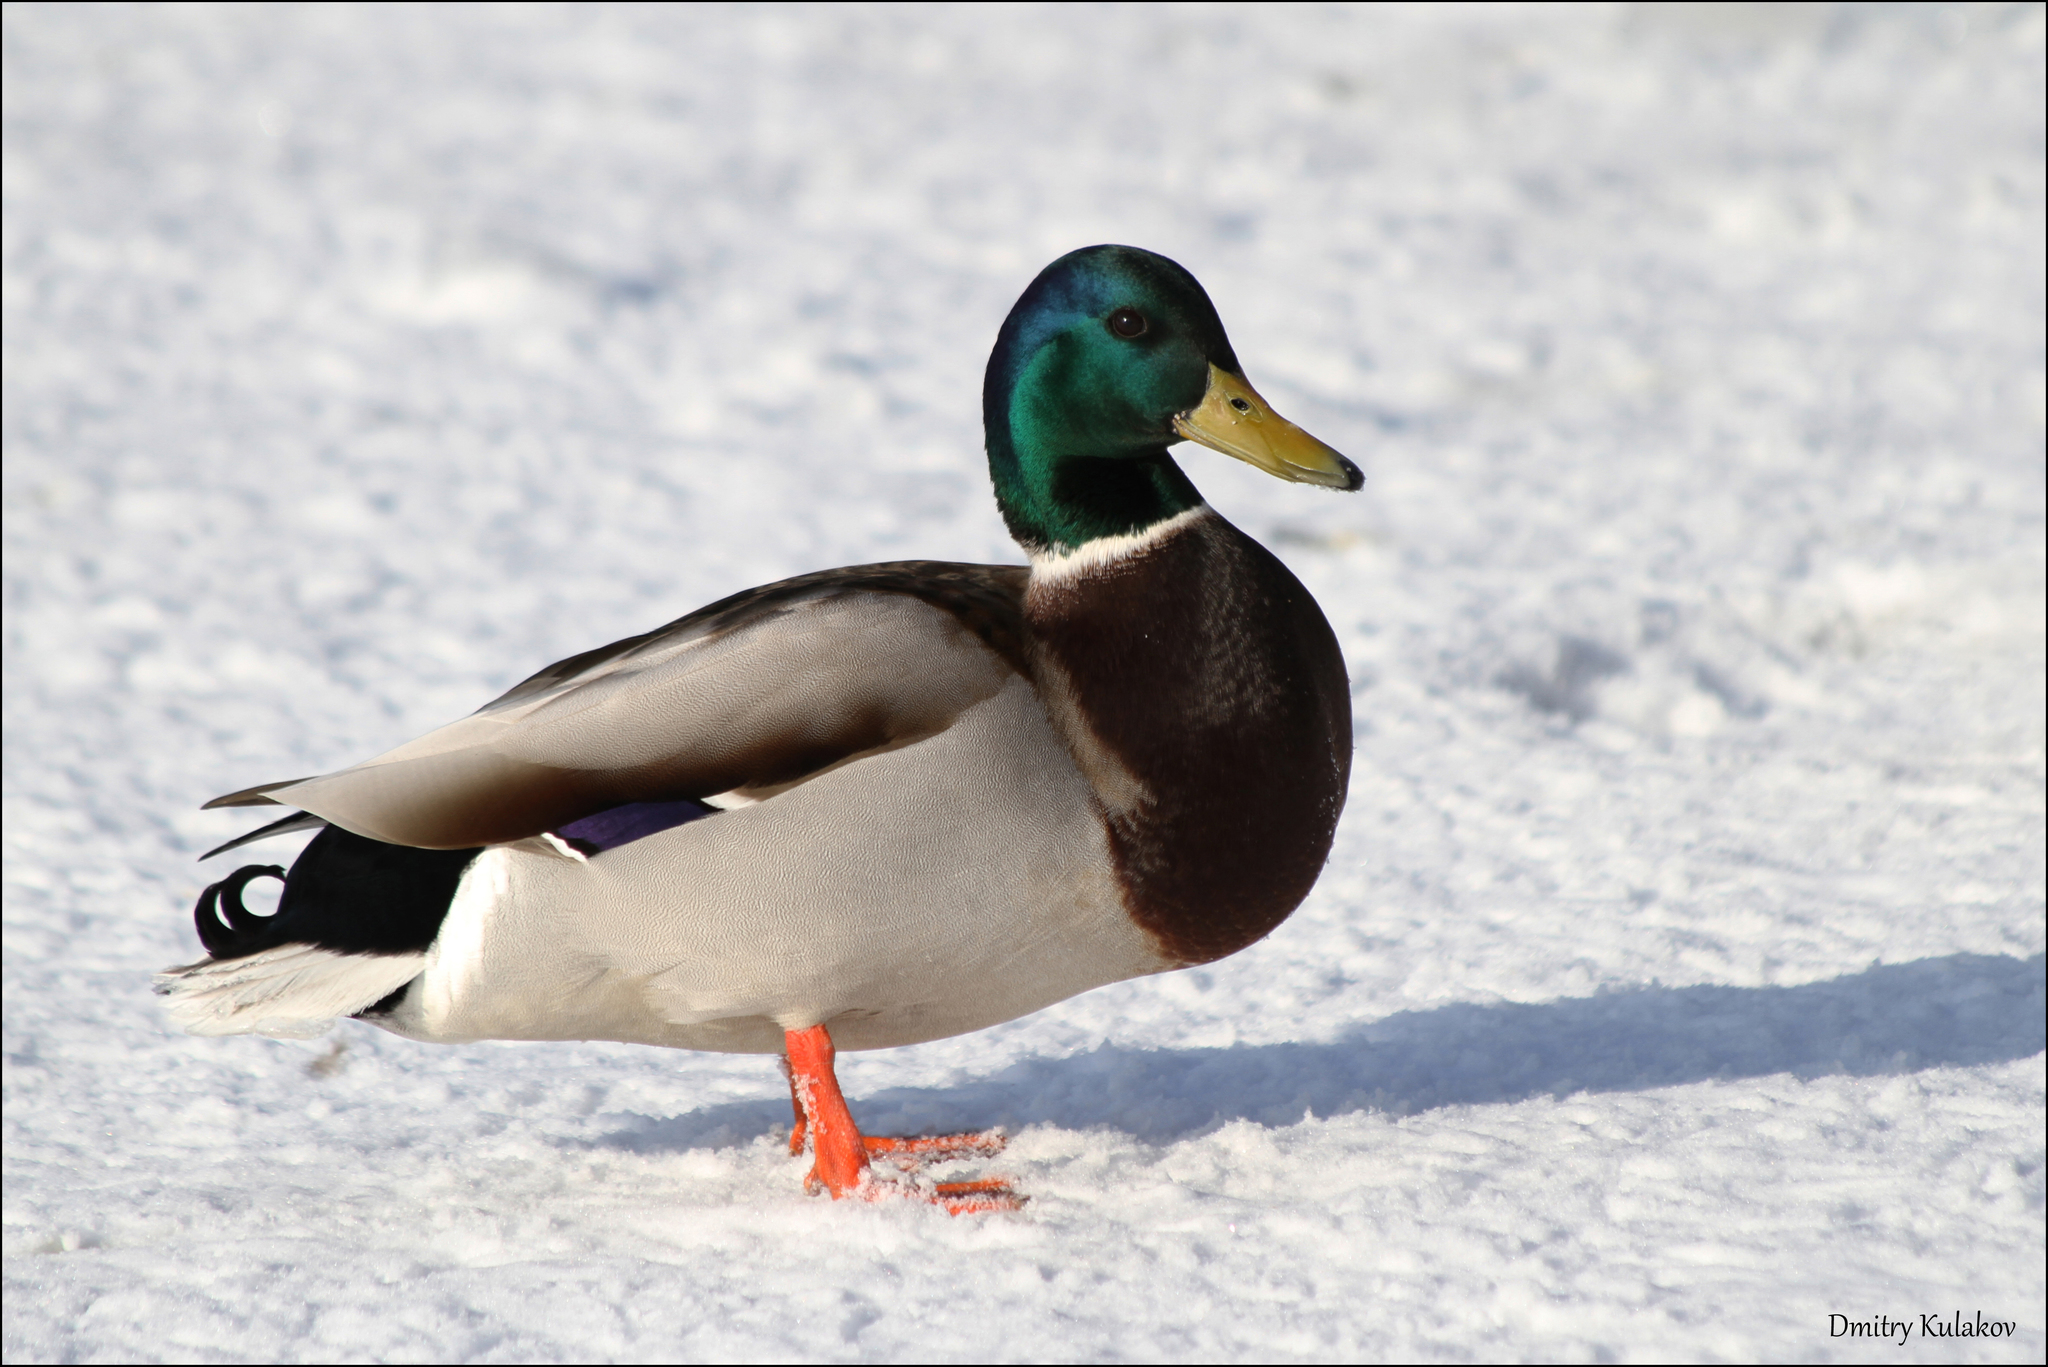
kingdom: Animalia
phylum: Chordata
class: Aves
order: Anseriformes
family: Anatidae
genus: Anas
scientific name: Anas platyrhynchos
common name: Mallard
